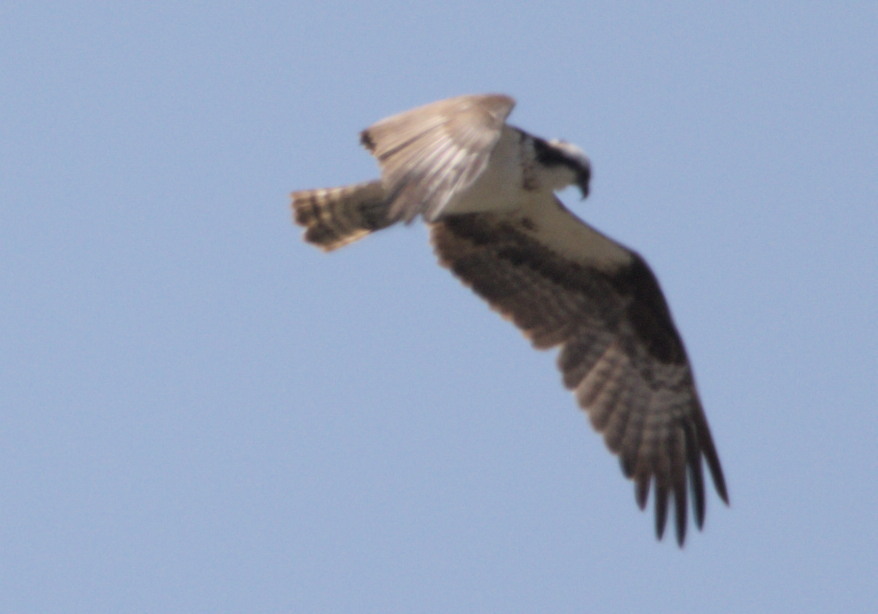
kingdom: Animalia
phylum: Chordata
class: Aves
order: Accipitriformes
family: Pandionidae
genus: Pandion
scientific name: Pandion haliaetus
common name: Osprey
